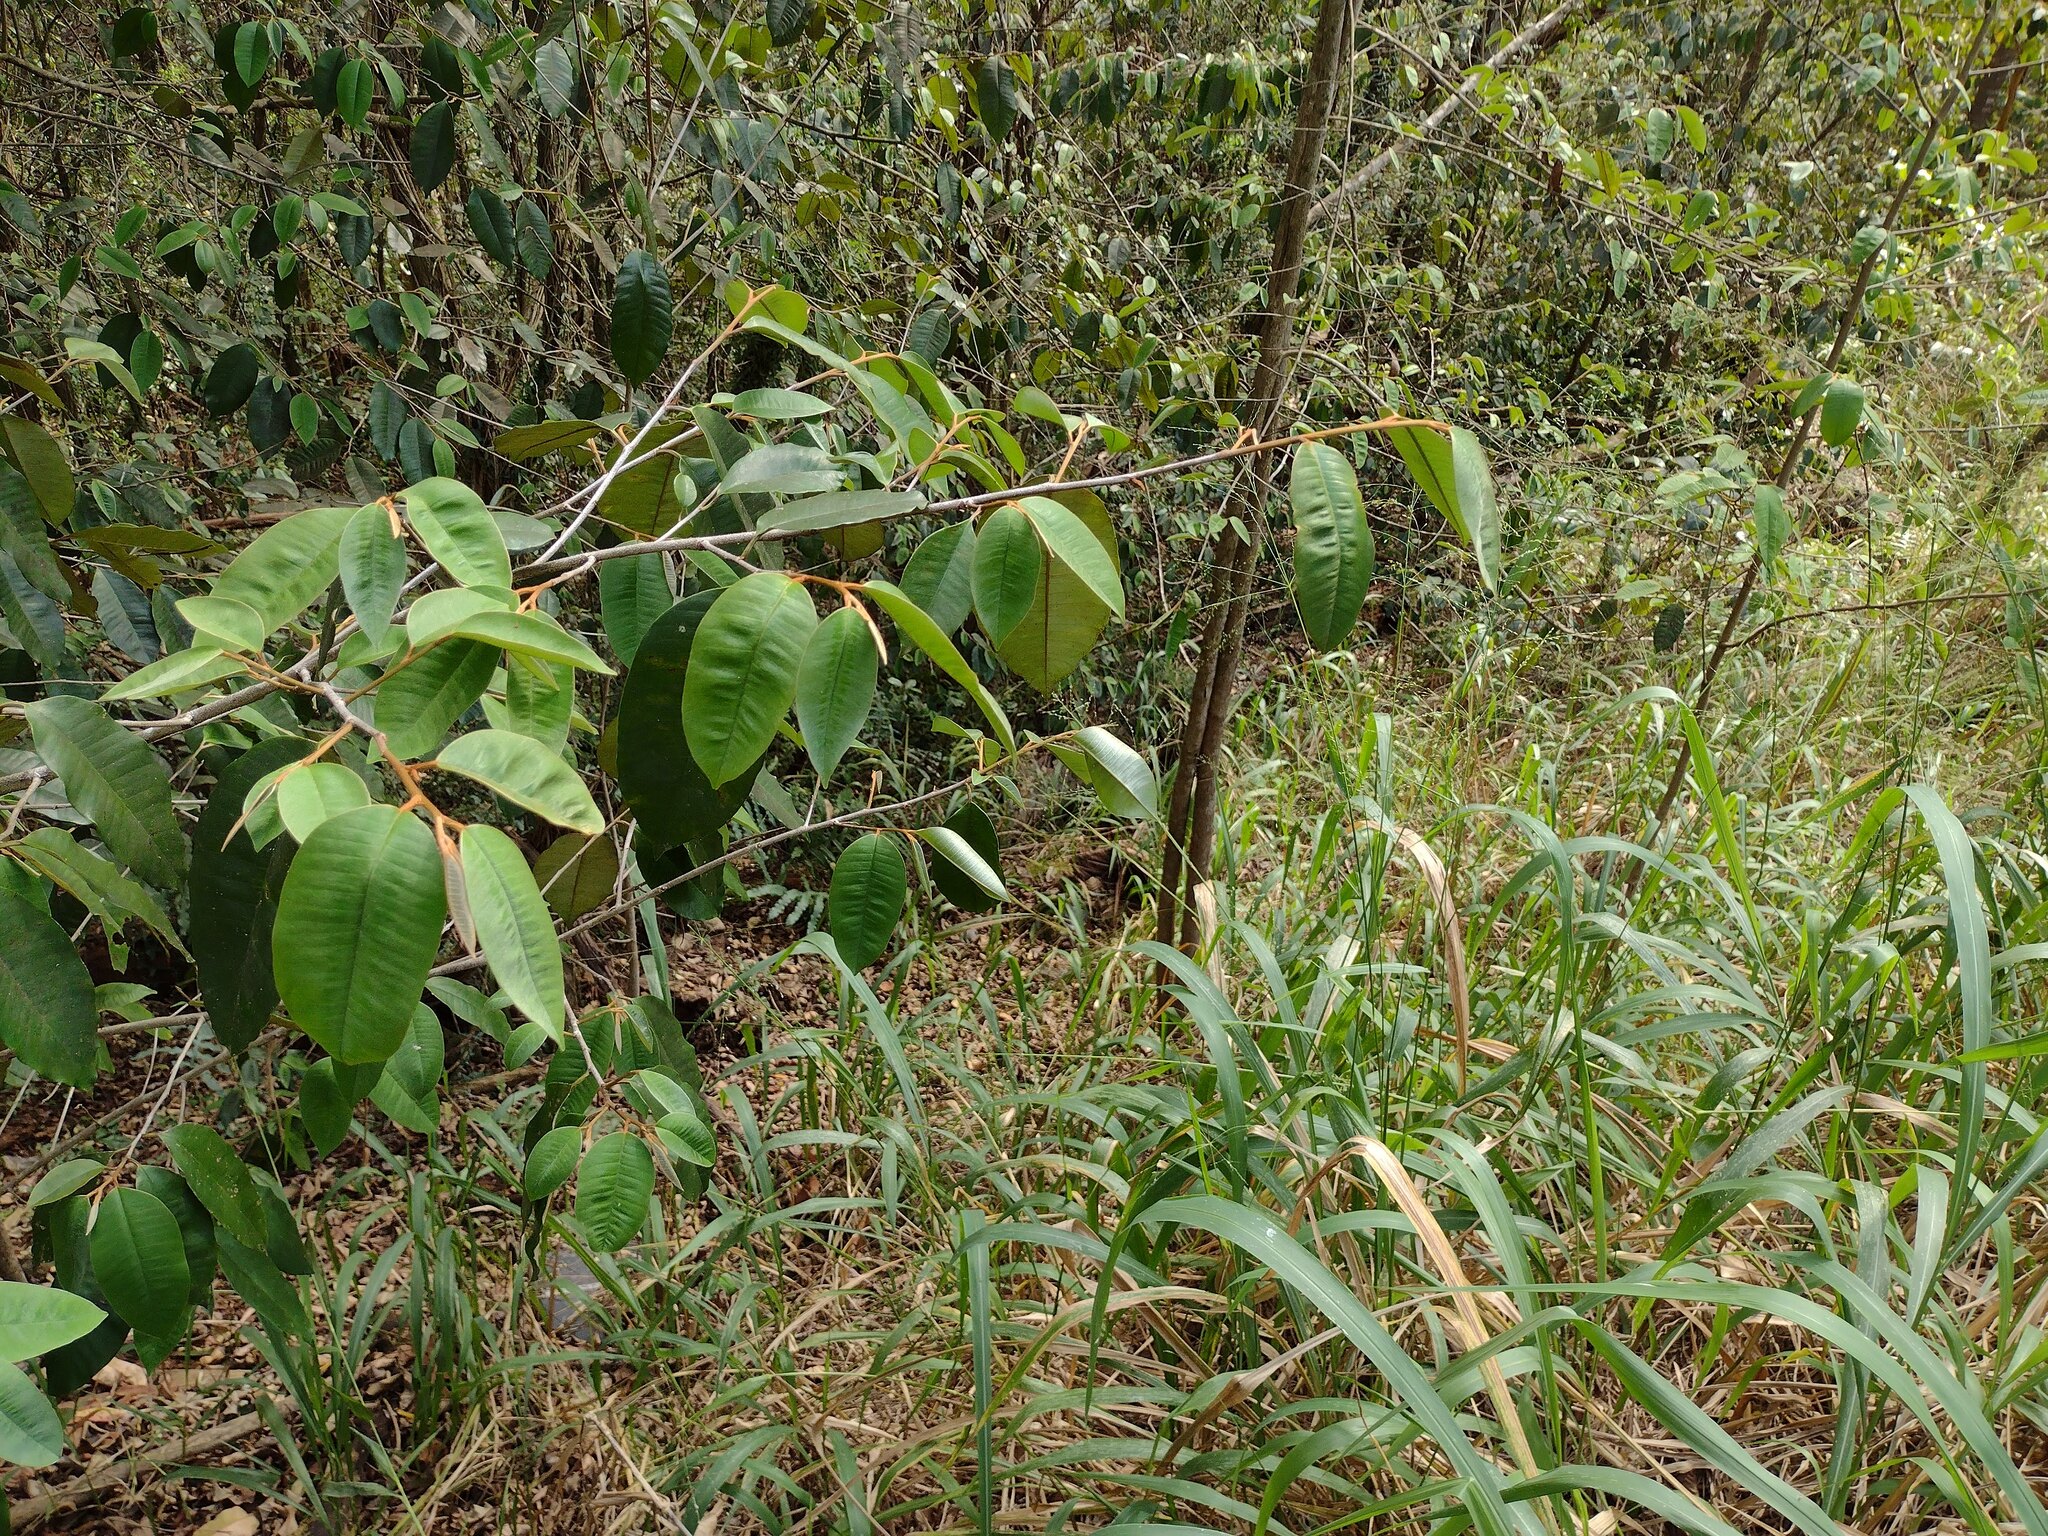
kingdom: Plantae
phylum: Tracheophyta
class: Magnoliopsida
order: Ericales
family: Sapotaceae
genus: Chrysophyllum
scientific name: Chrysophyllum oliviforme
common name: Satinleaf
